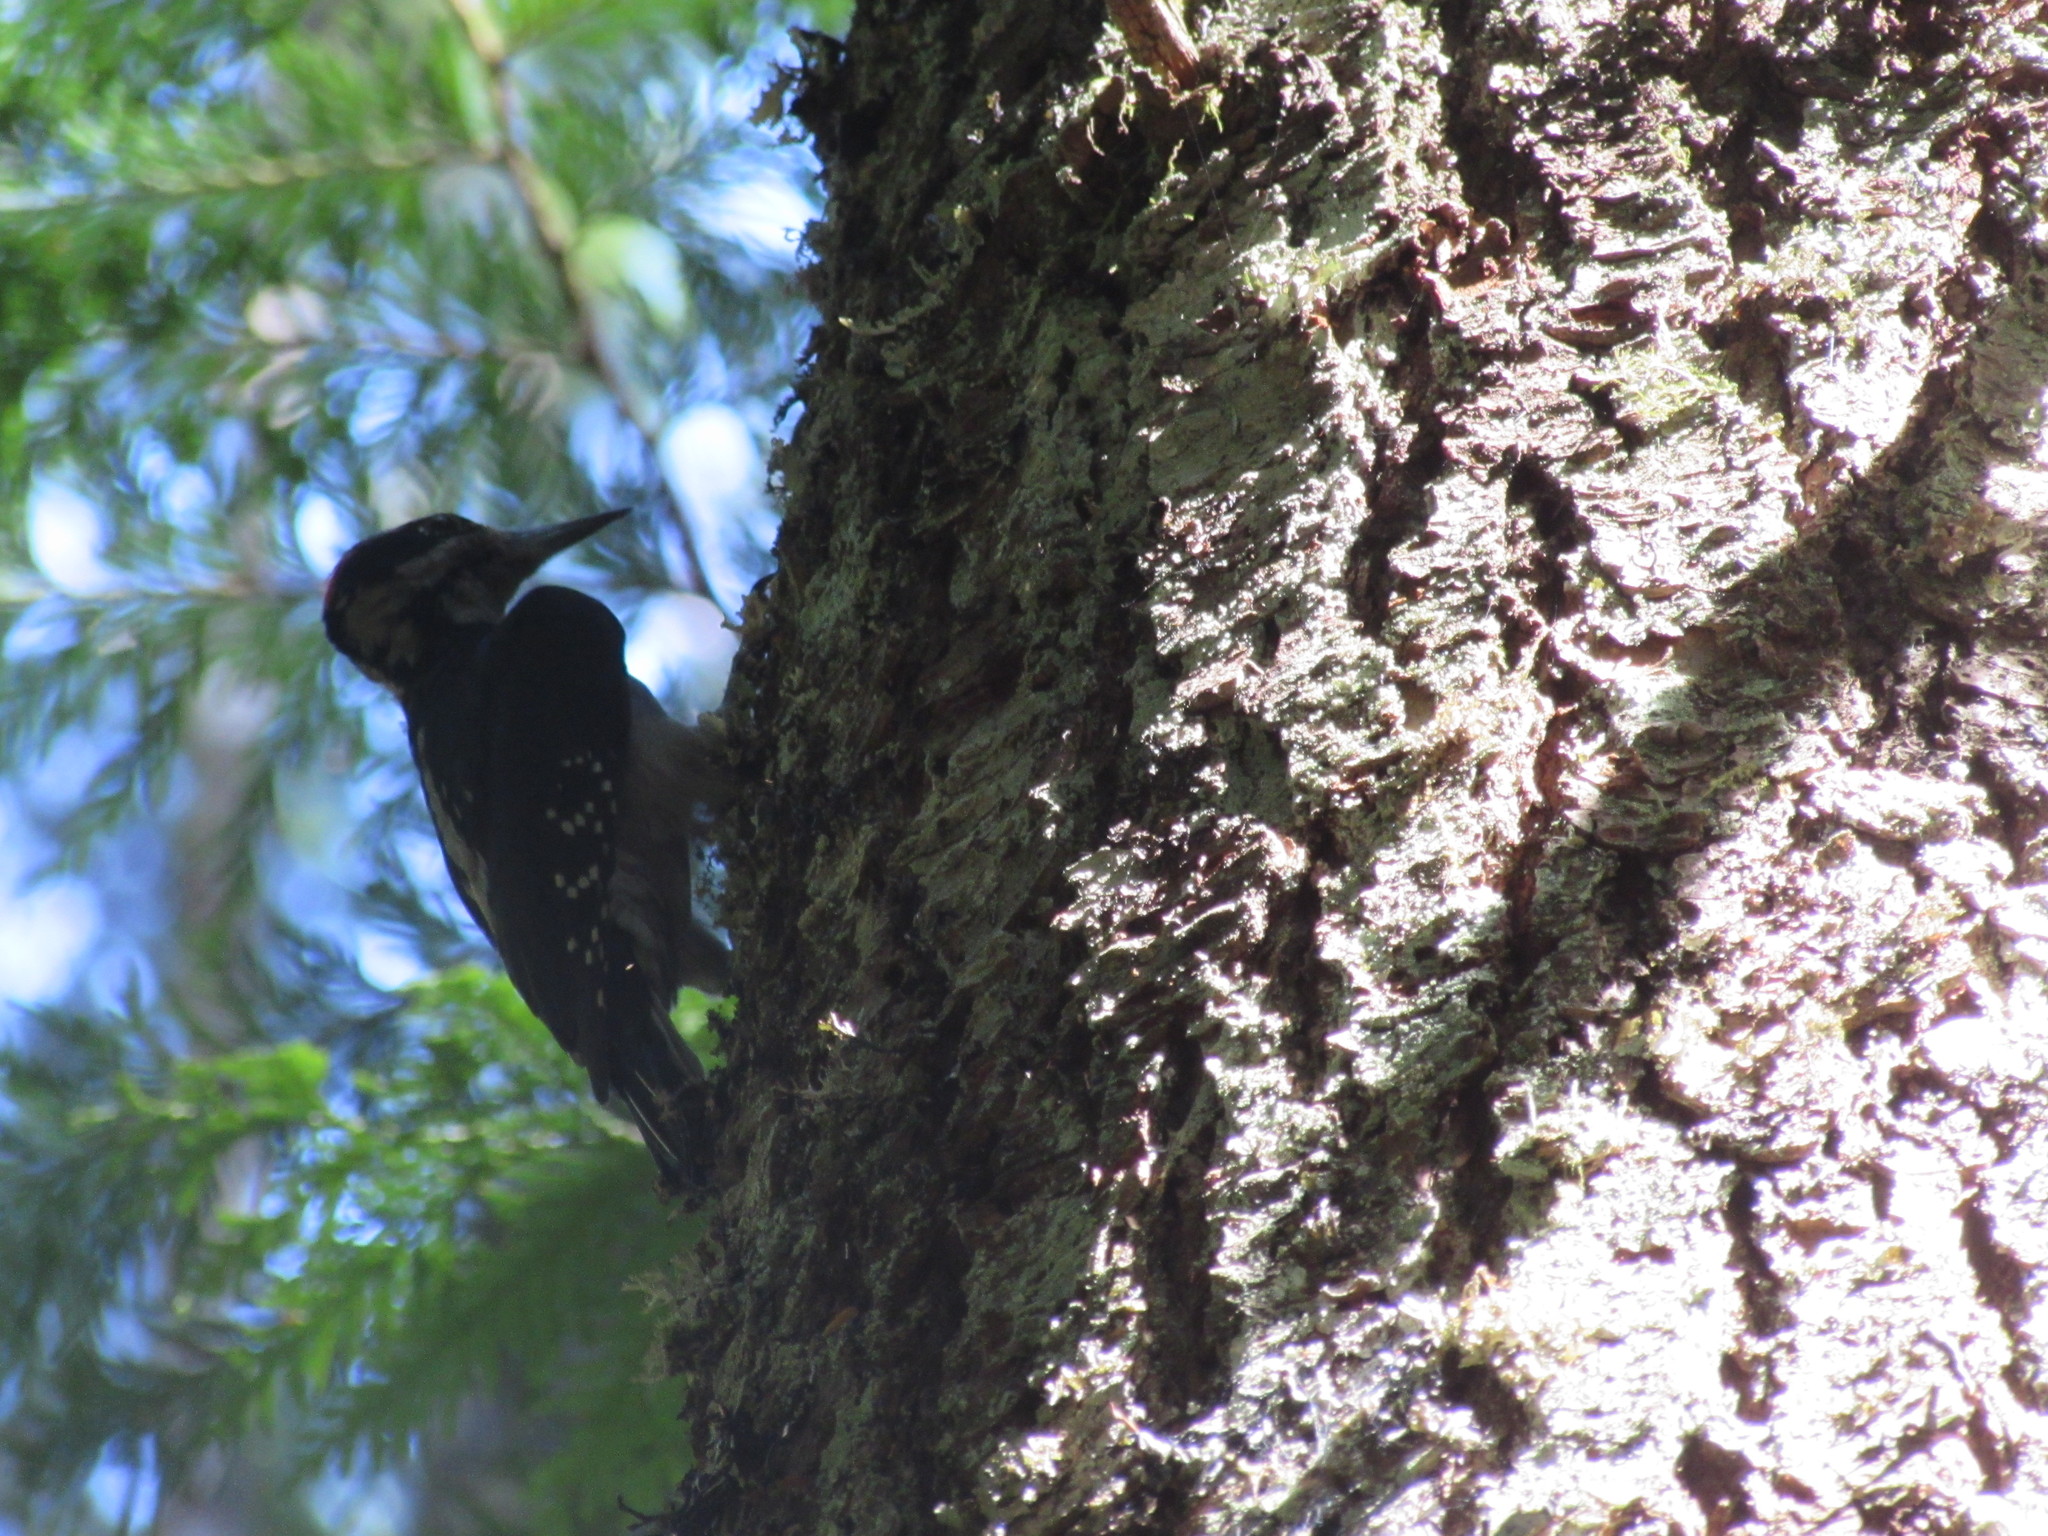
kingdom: Animalia
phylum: Chordata
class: Aves
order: Piciformes
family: Picidae
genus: Leuconotopicus
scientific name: Leuconotopicus villosus
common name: Hairy woodpecker
